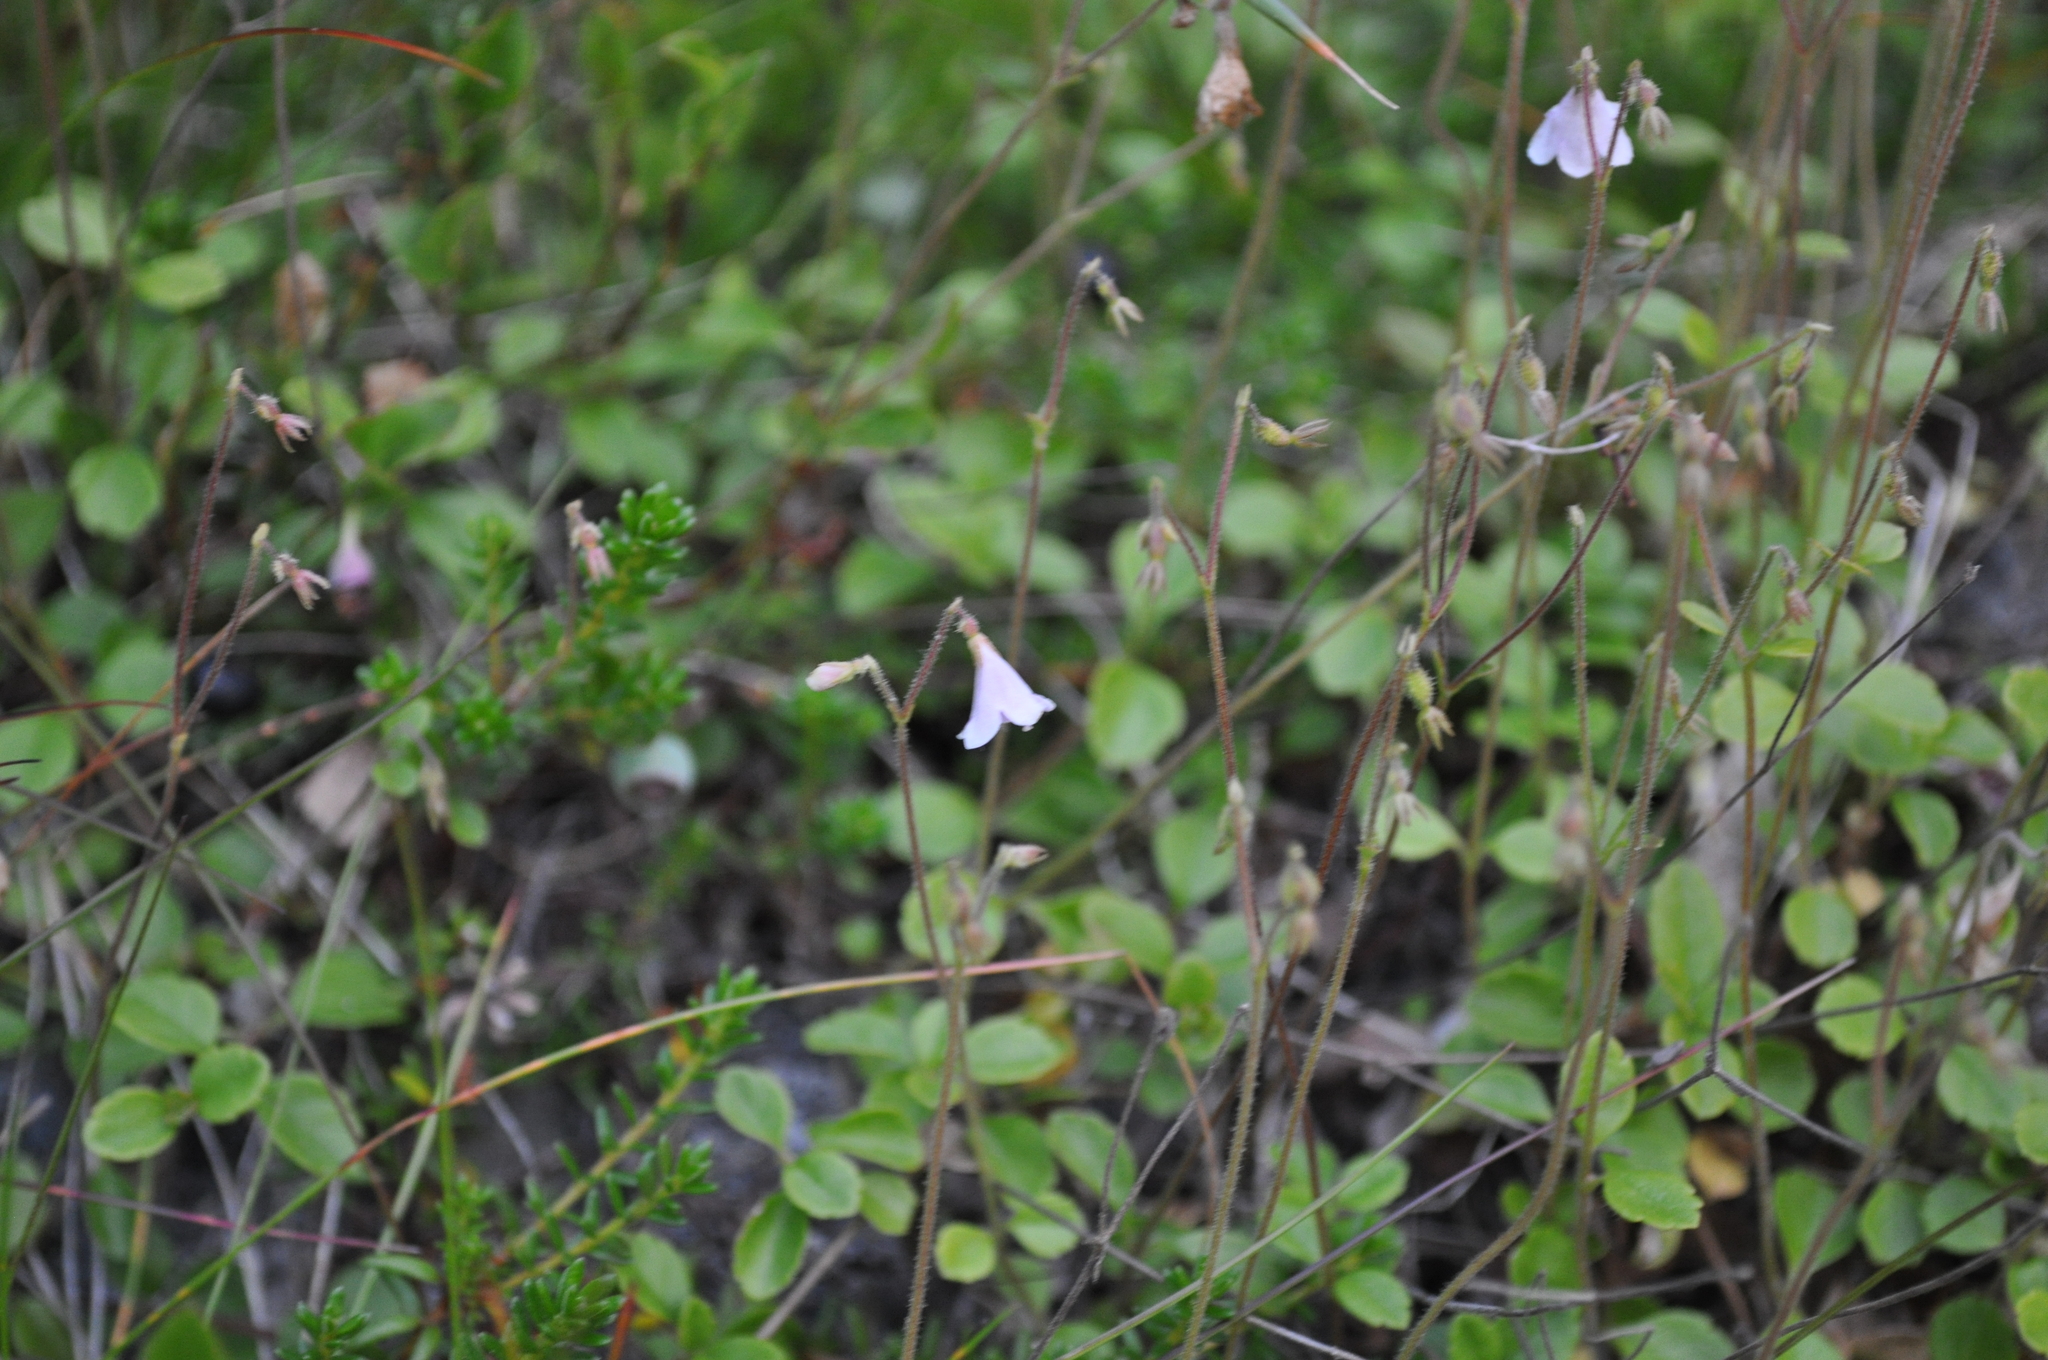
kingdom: Plantae
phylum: Tracheophyta
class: Magnoliopsida
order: Dipsacales
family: Caprifoliaceae
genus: Linnaea
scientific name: Linnaea borealis
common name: Twinflower
